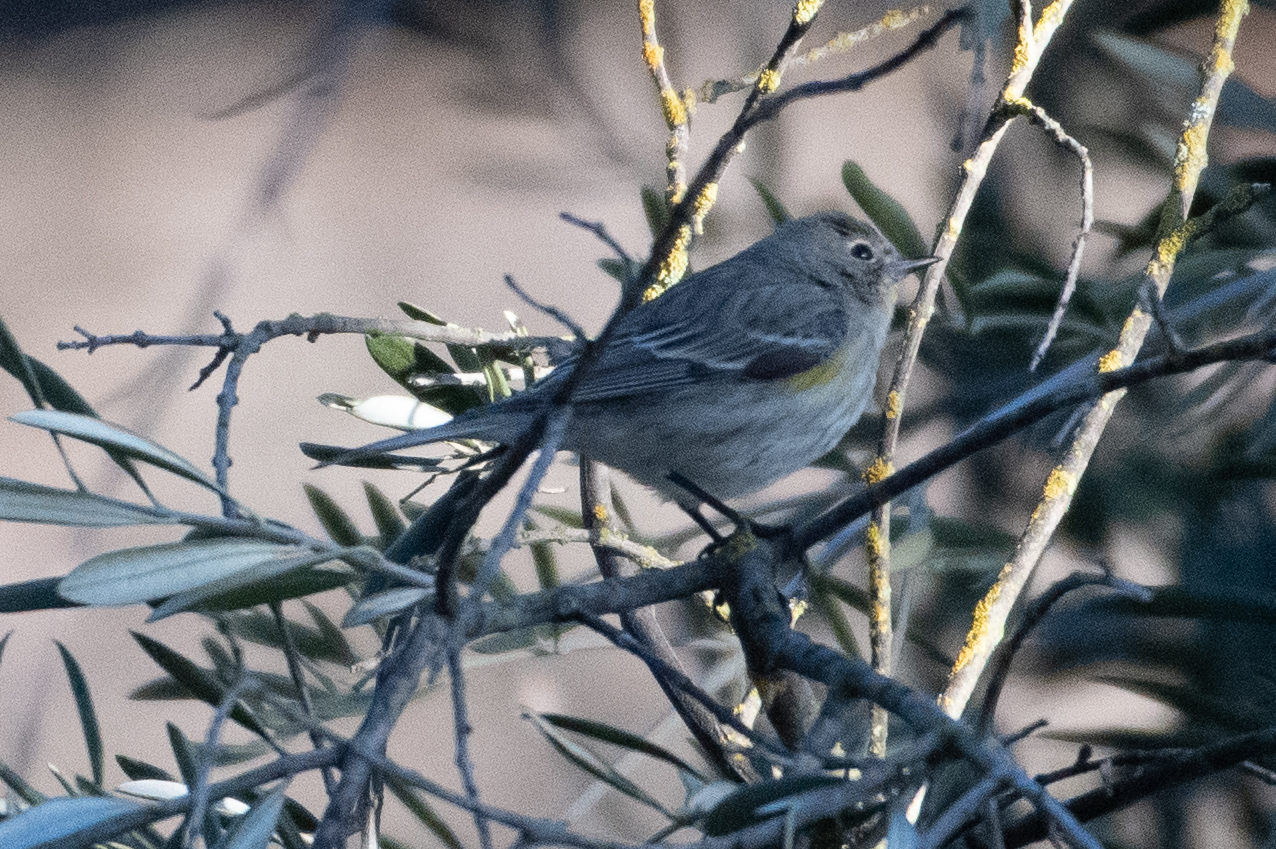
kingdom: Animalia
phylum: Chordata
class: Aves
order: Passeriformes
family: Parulidae
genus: Setophaga
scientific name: Setophaga coronata
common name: Myrtle warbler
